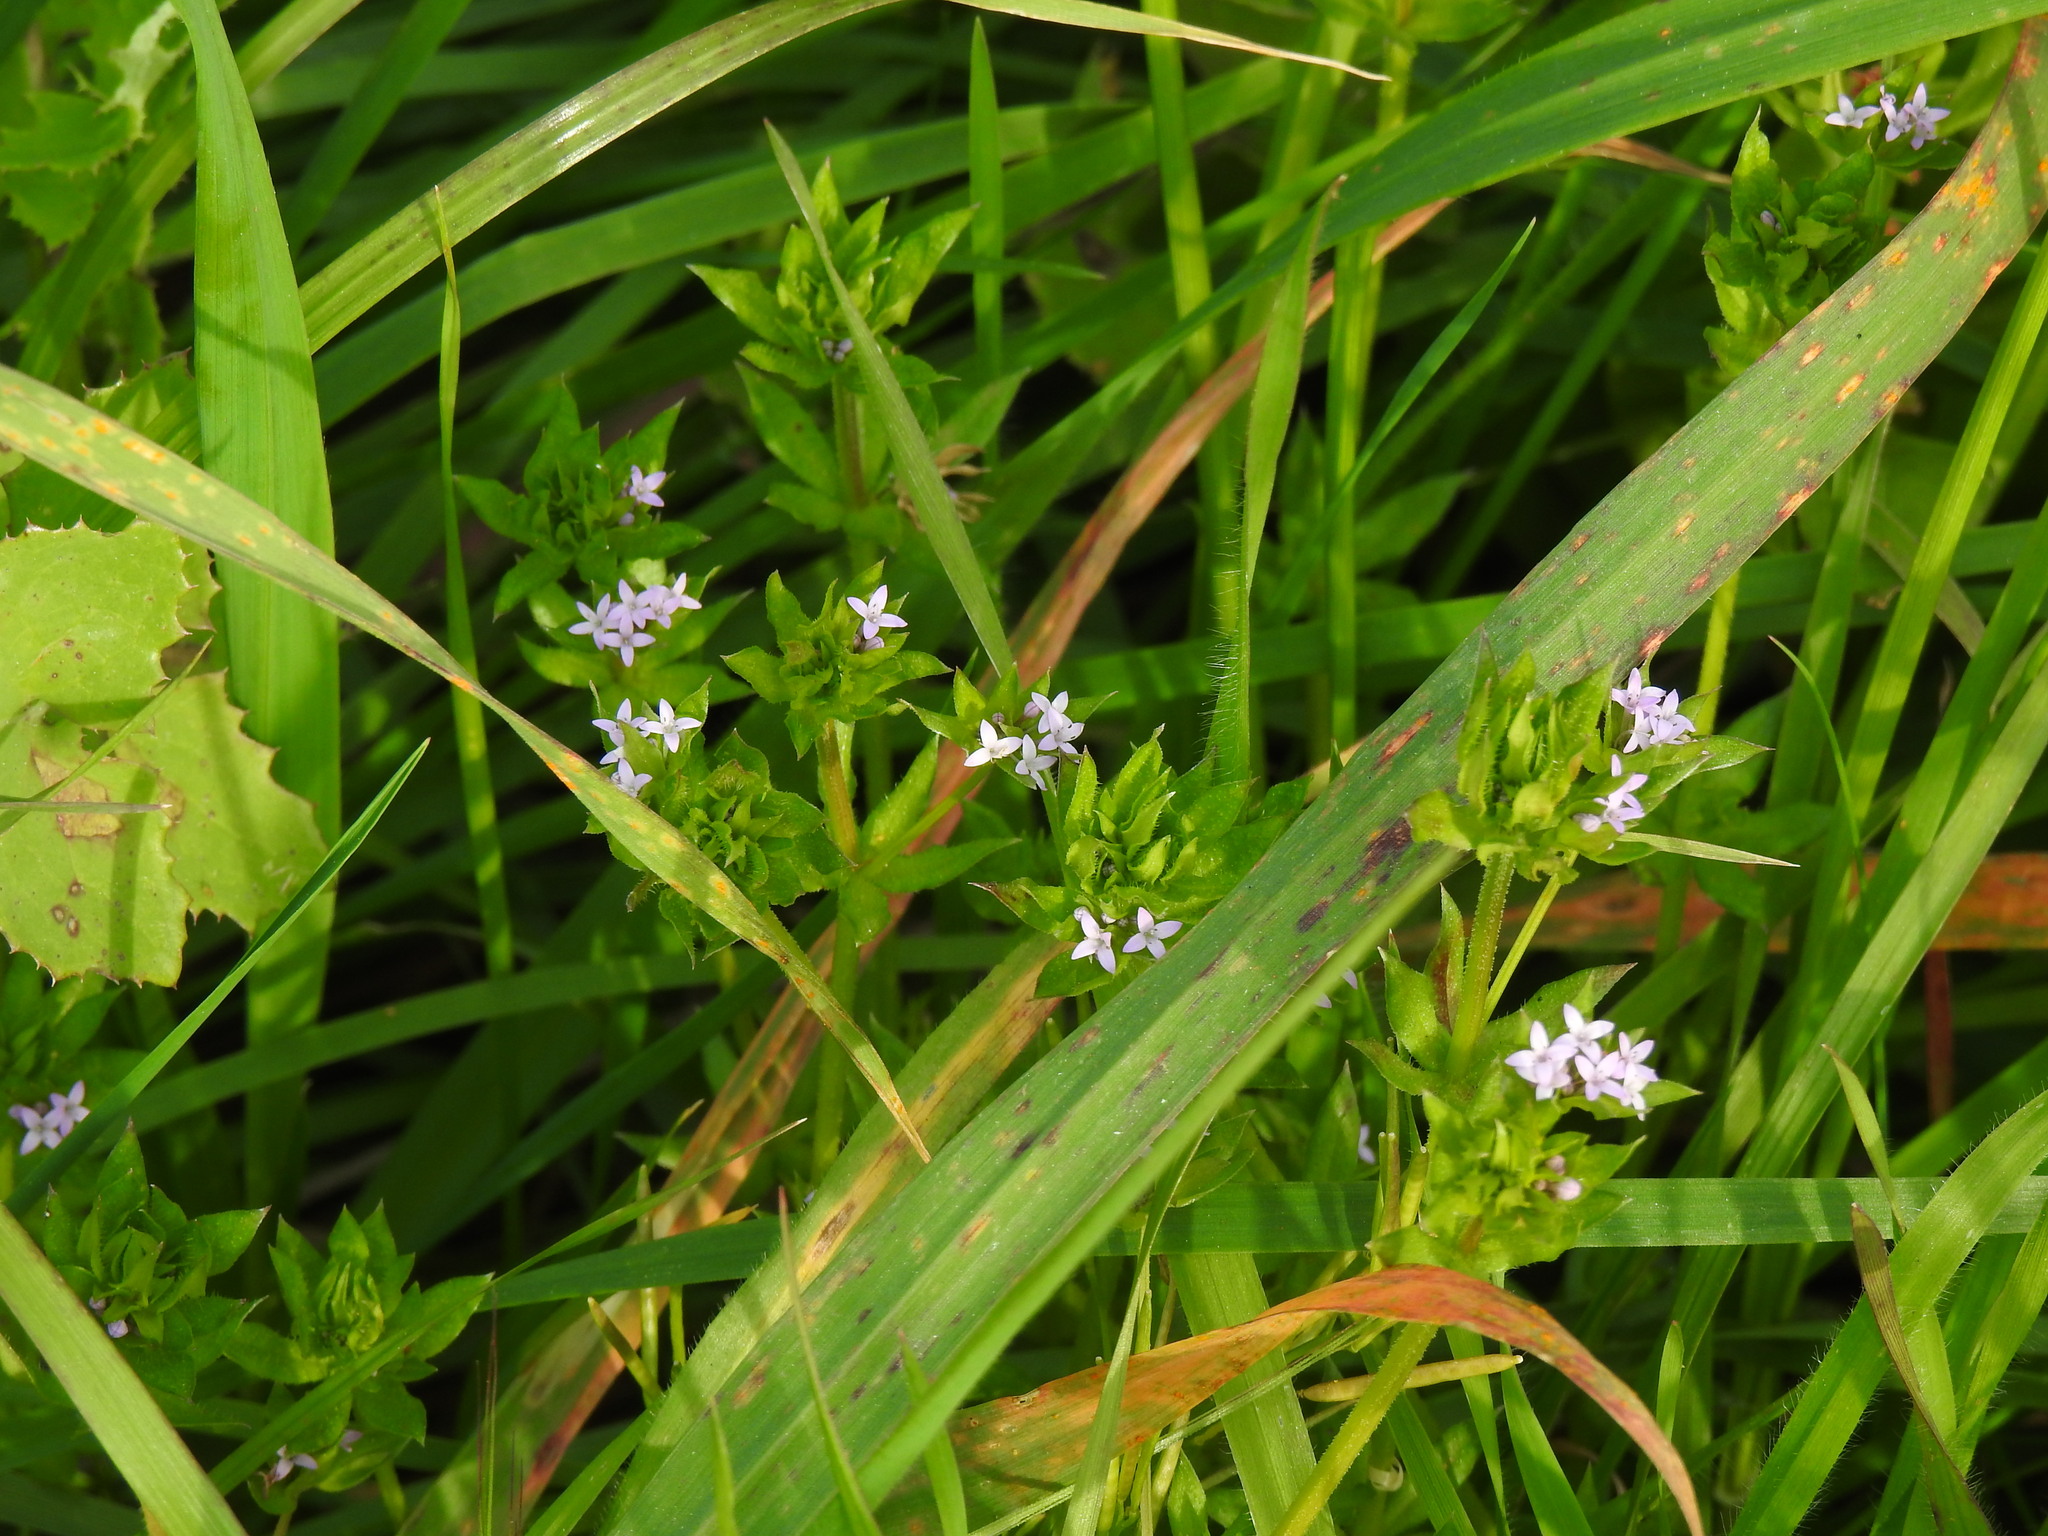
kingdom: Plantae
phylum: Tracheophyta
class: Magnoliopsida
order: Gentianales
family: Rubiaceae
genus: Sherardia
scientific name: Sherardia arvensis
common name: Field madder
